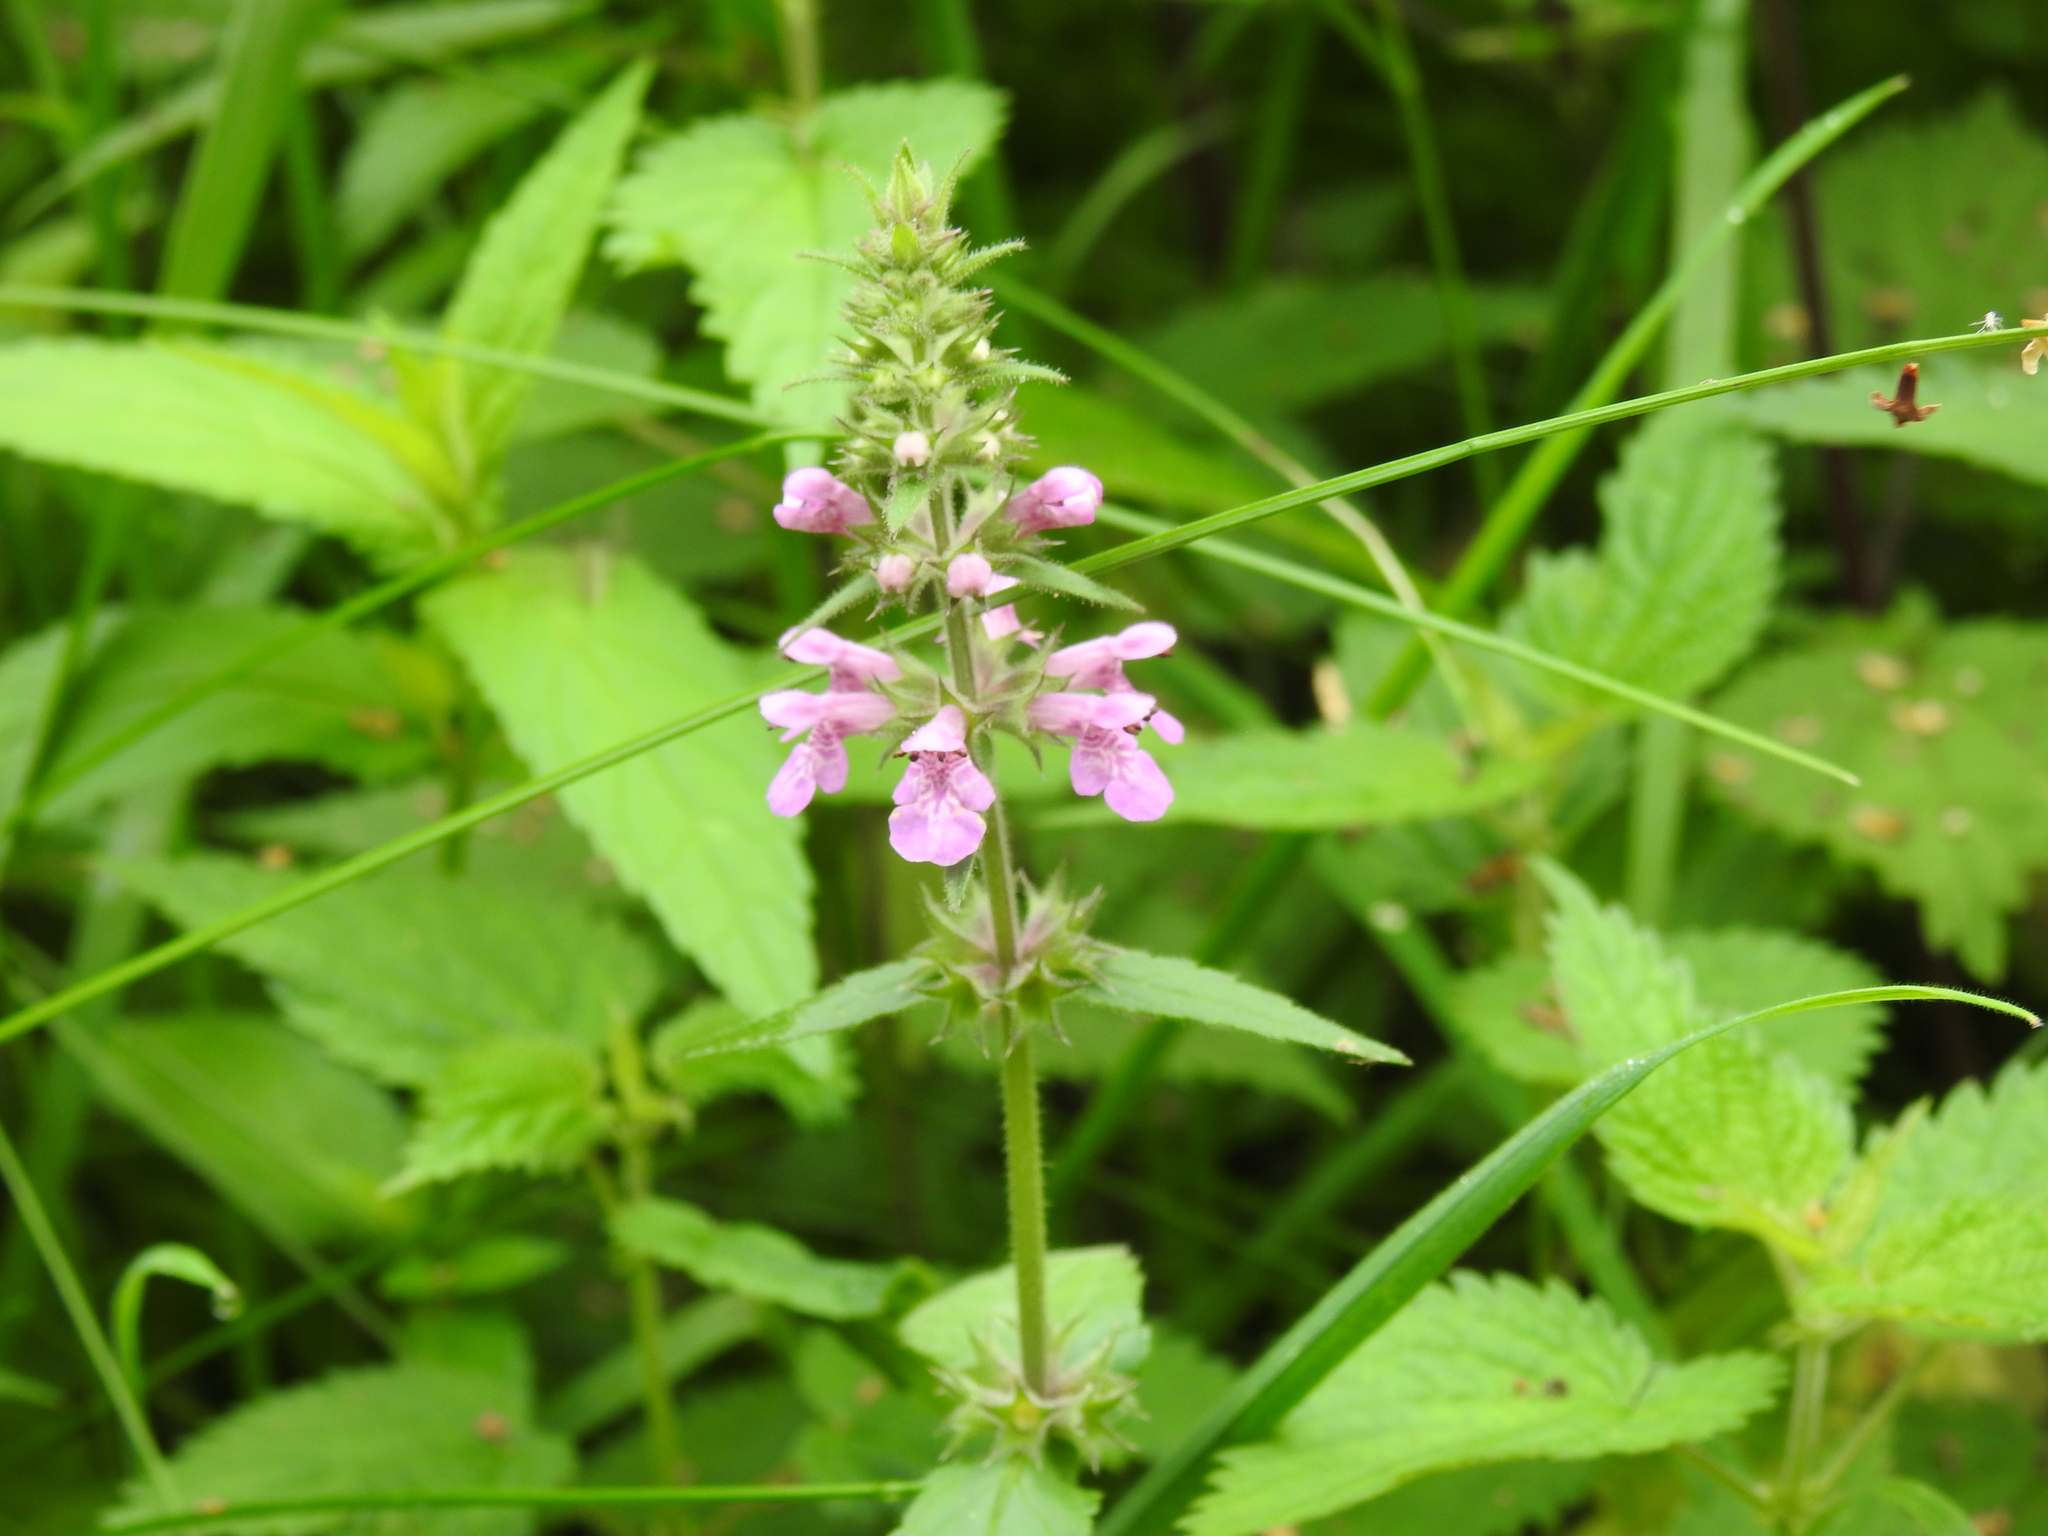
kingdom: Plantae
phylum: Tracheophyta
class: Magnoliopsida
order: Lamiales
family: Lamiaceae
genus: Stachys
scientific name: Stachys palustris
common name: Marsh woundwort
